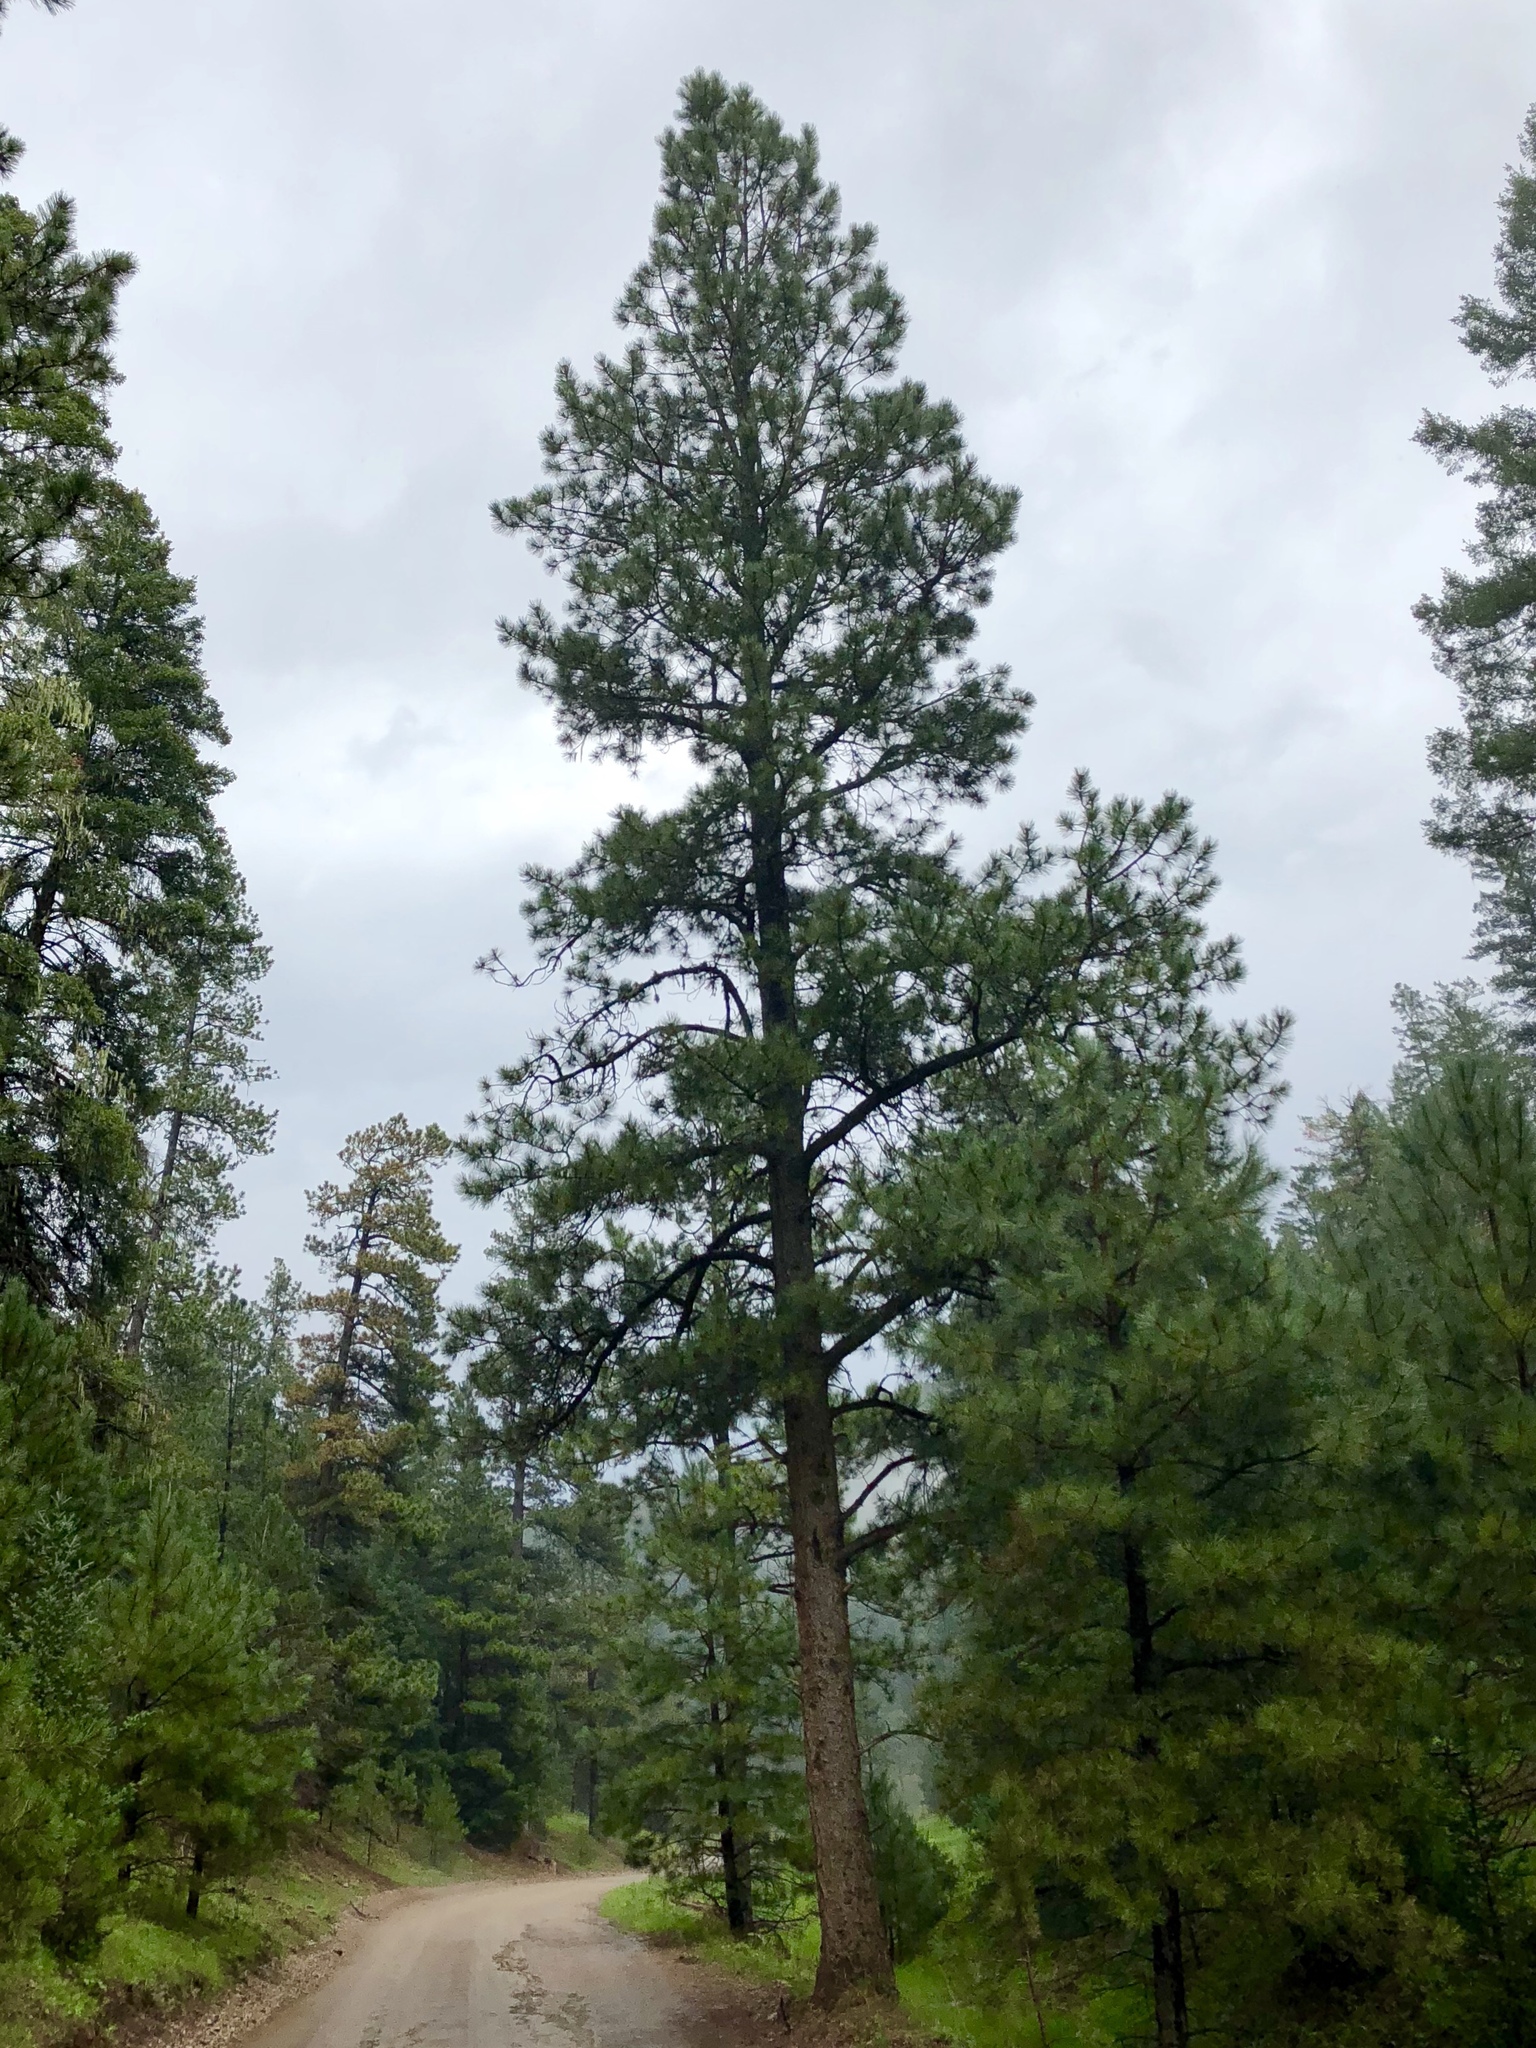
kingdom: Plantae
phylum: Tracheophyta
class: Pinopsida
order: Pinales
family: Pinaceae
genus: Pinus
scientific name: Pinus ponderosa
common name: Western yellow-pine
